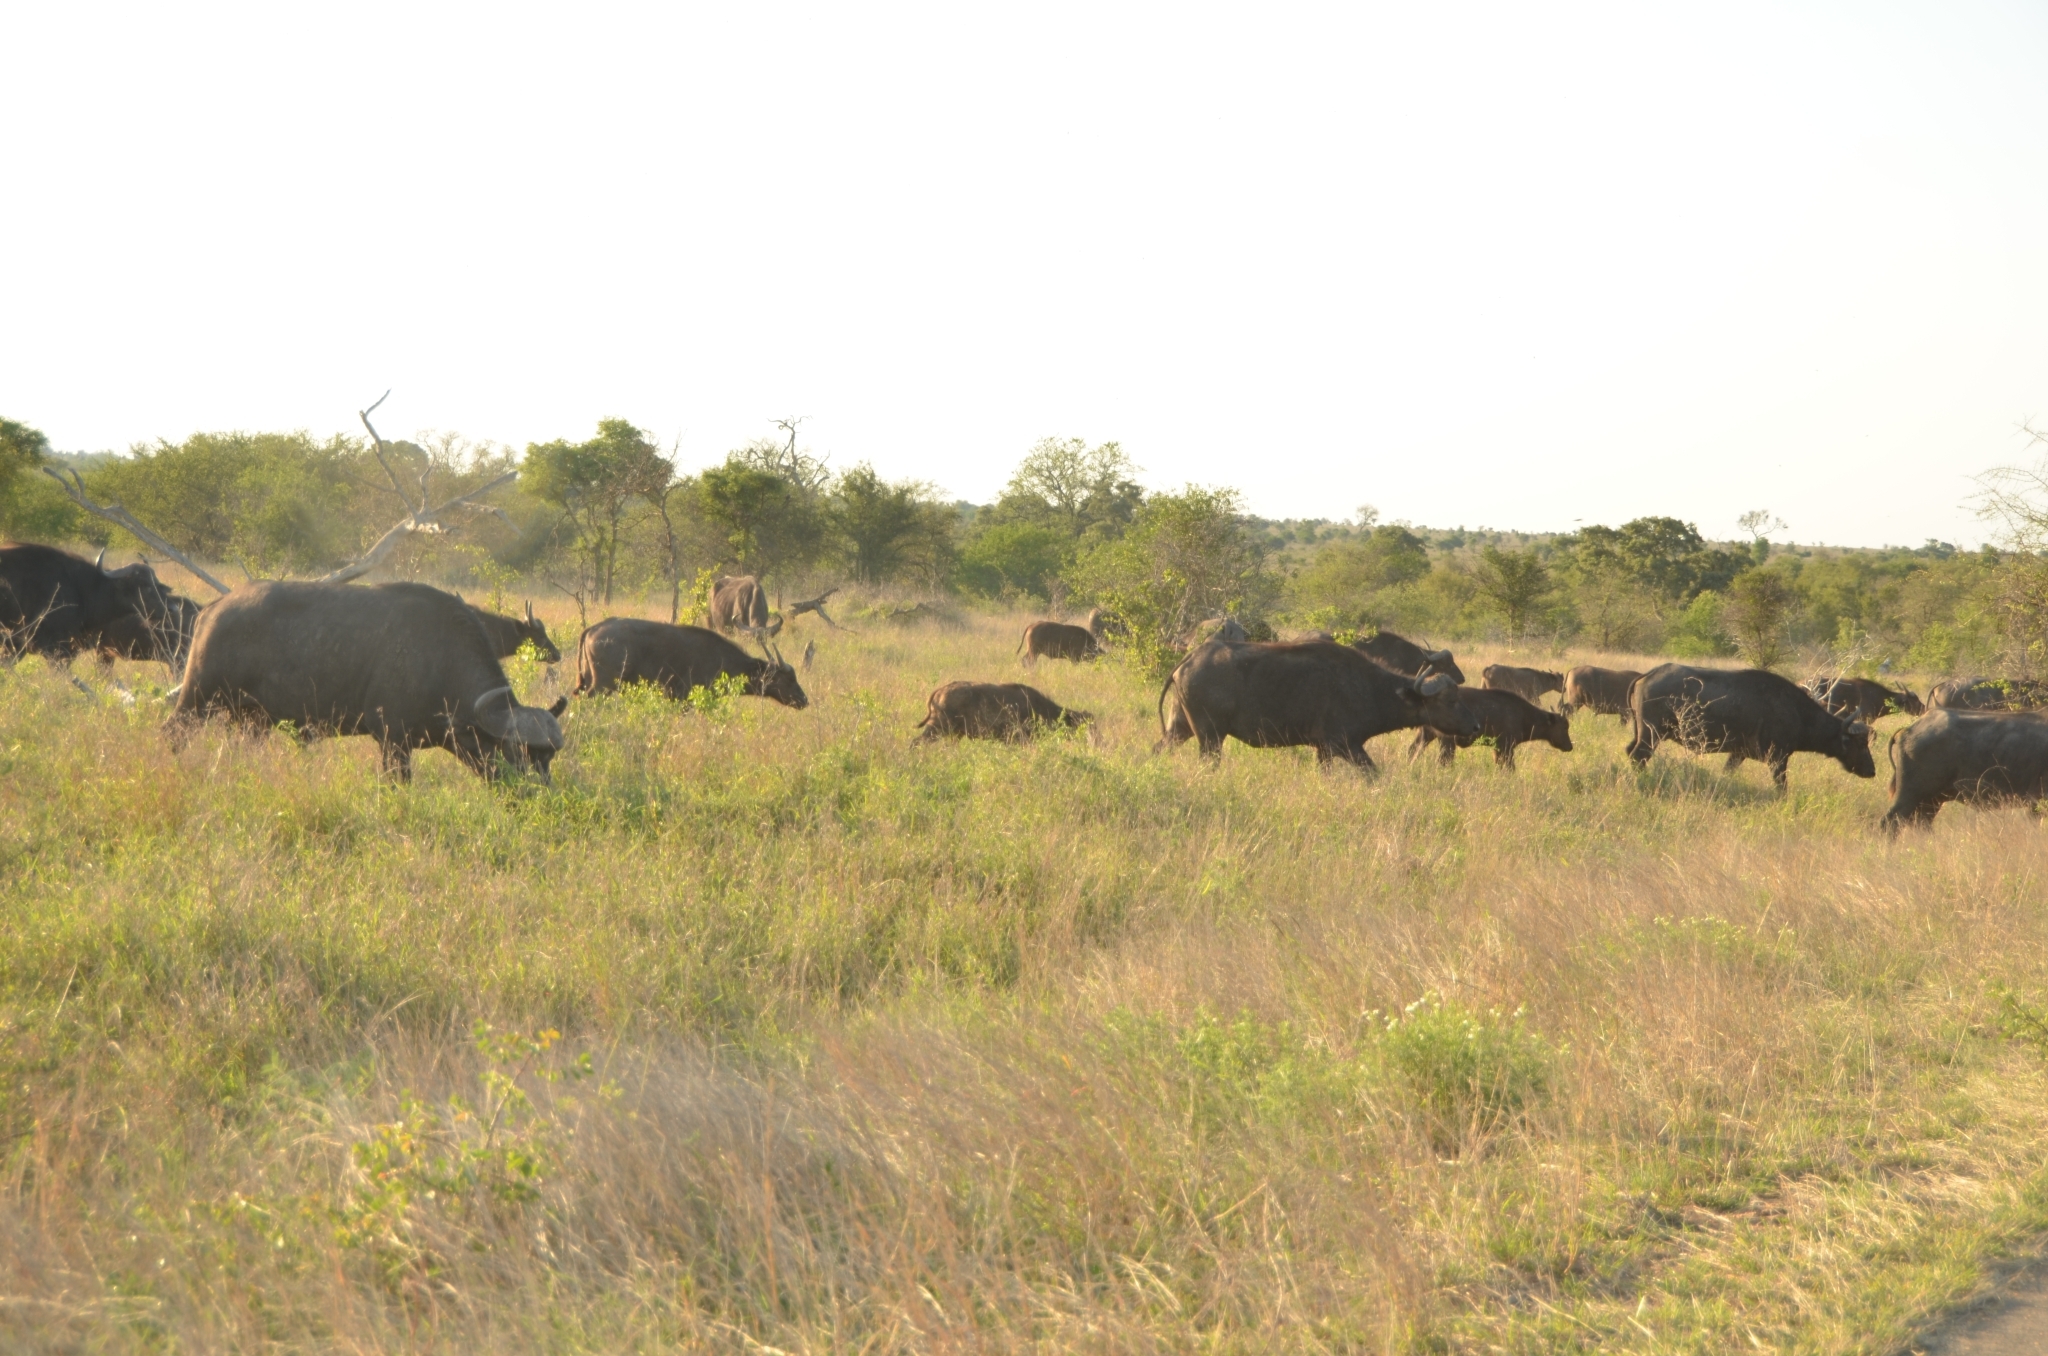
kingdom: Animalia
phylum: Chordata
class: Mammalia
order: Artiodactyla
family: Bovidae
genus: Syncerus
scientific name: Syncerus caffer
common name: African buffalo
